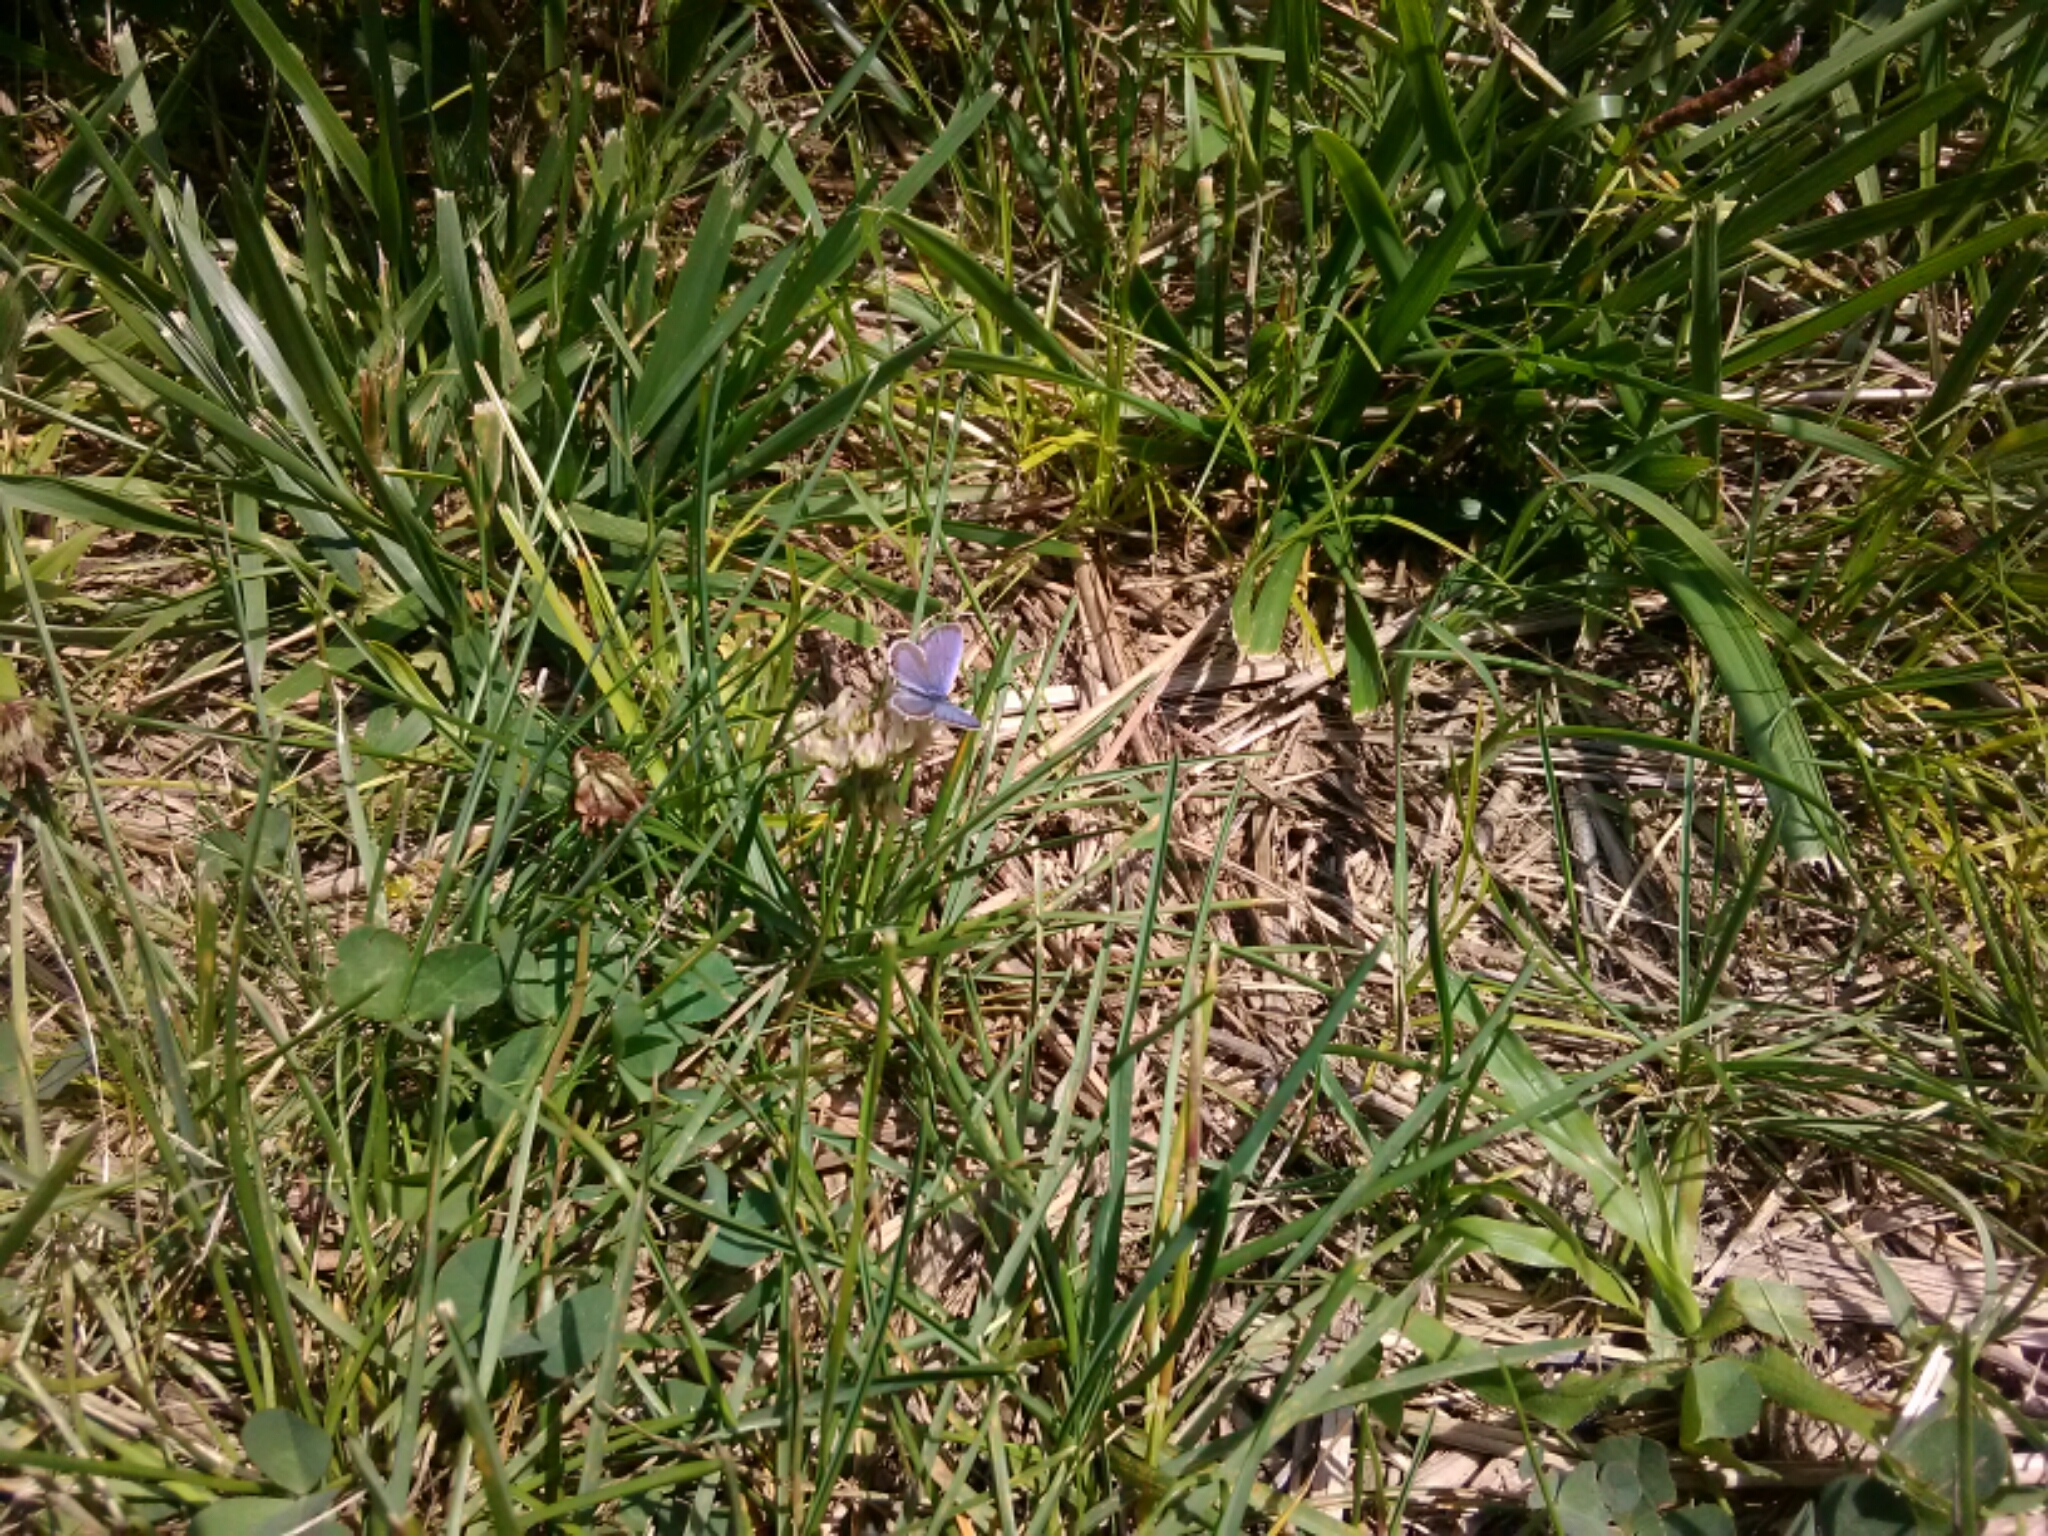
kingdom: Animalia
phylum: Arthropoda
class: Insecta
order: Lepidoptera
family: Lycaenidae
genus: Elkalyce
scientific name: Elkalyce comyntas
